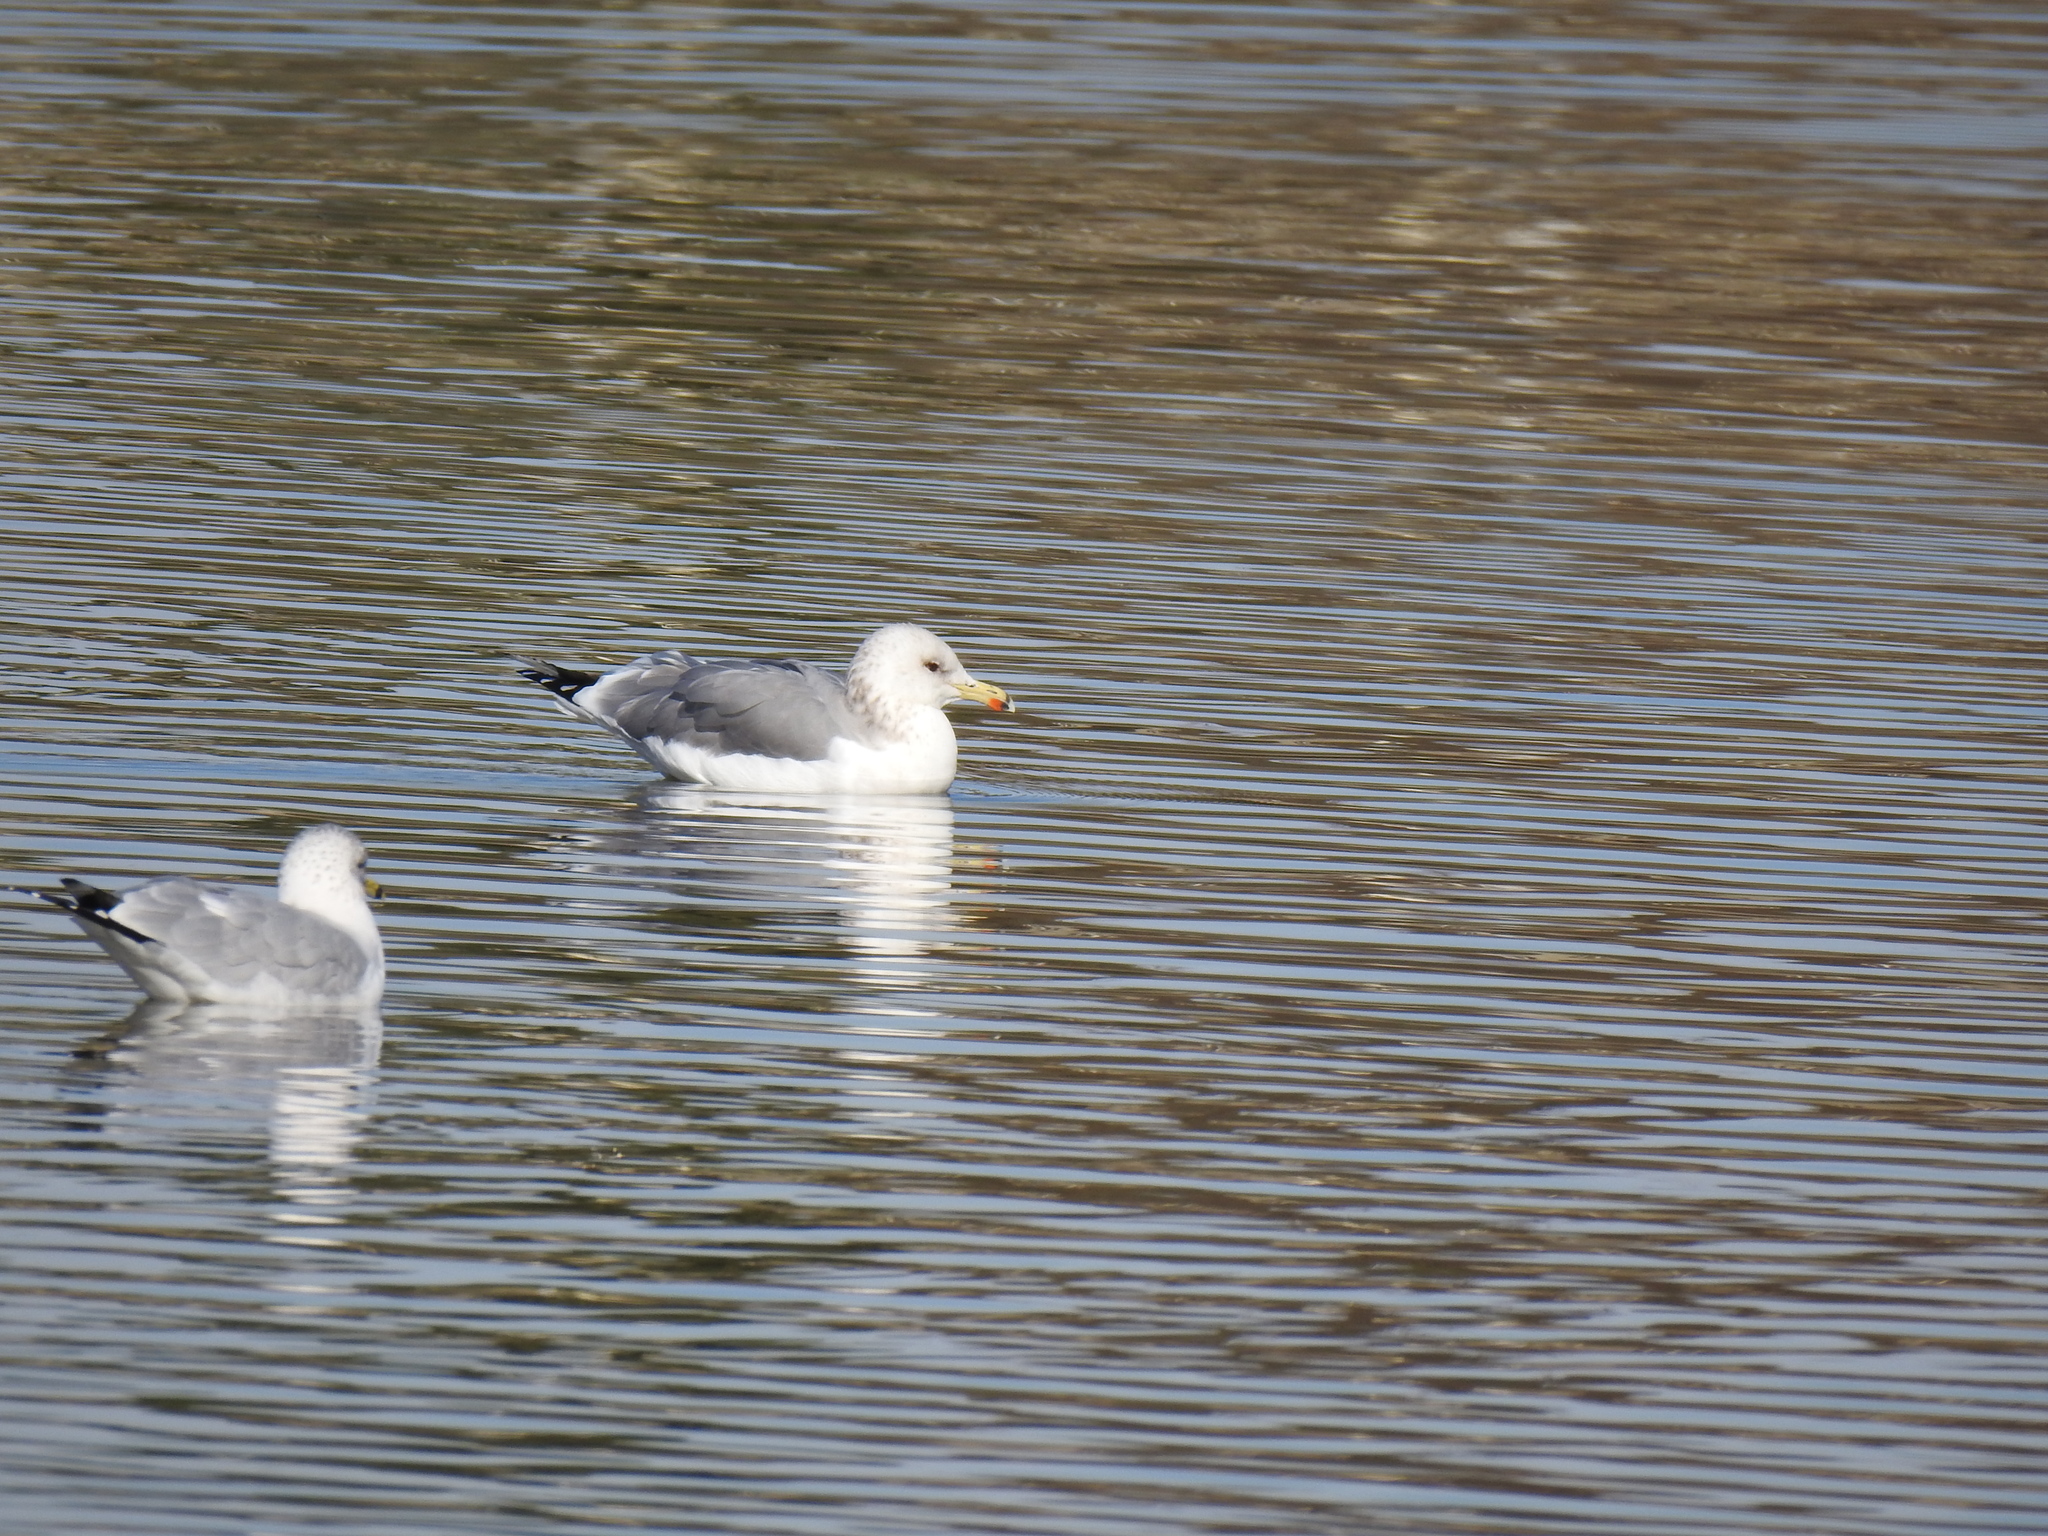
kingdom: Animalia
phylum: Chordata
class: Aves
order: Charadriiformes
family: Laridae
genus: Larus
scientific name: Larus californicus
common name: California gull
